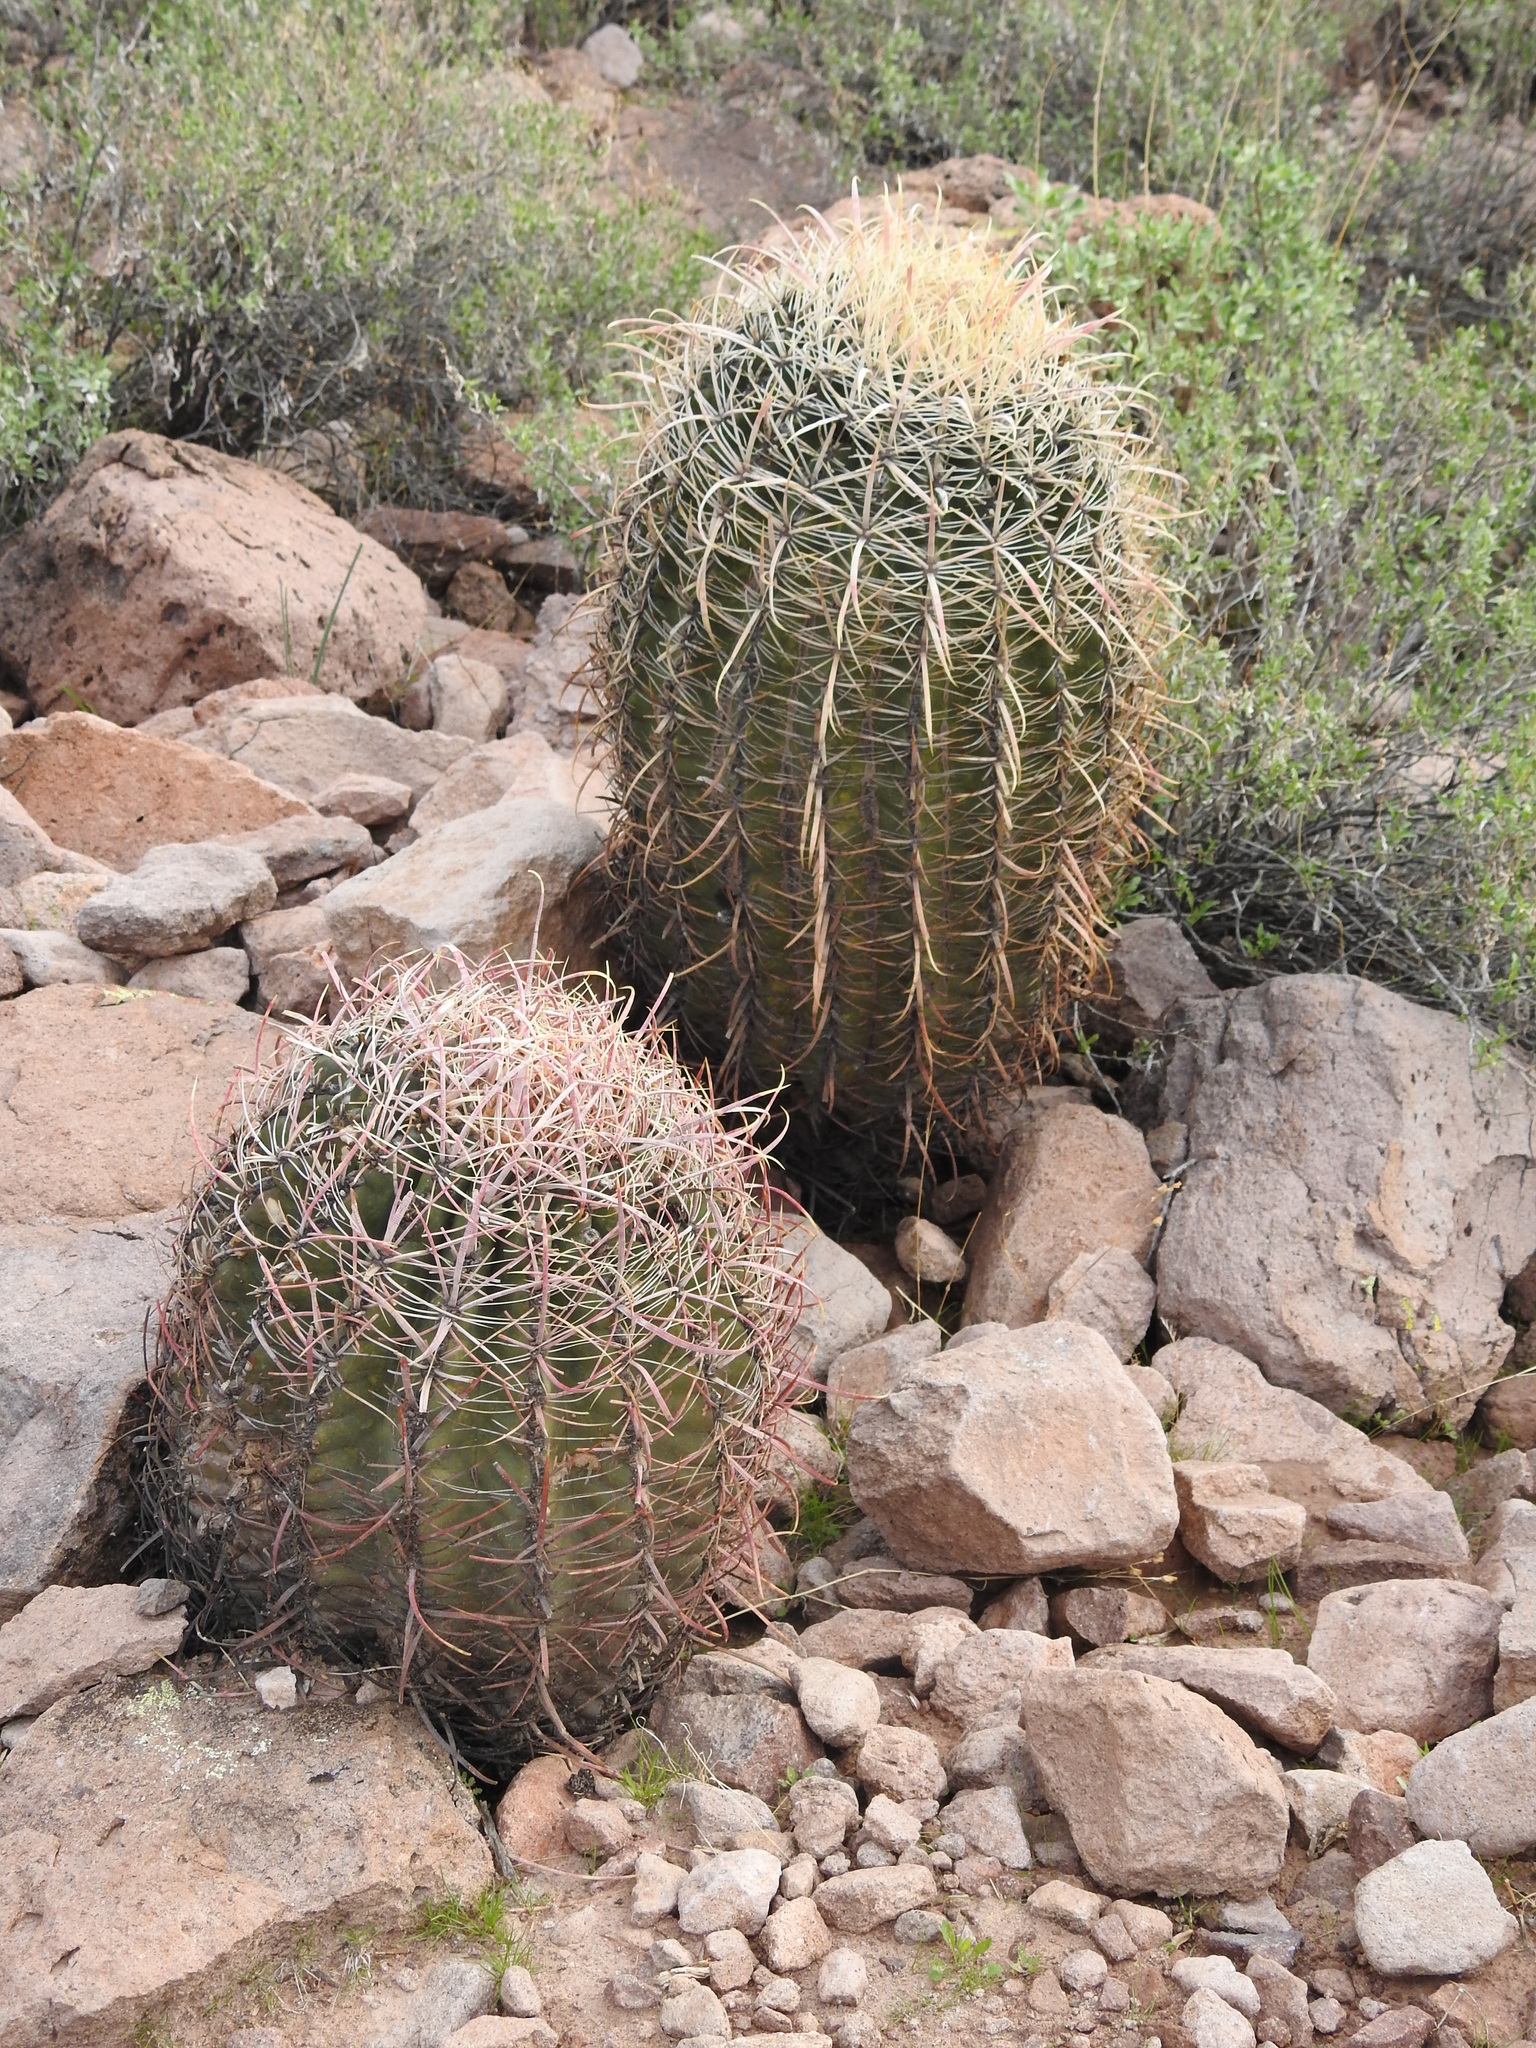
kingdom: Plantae
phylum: Tracheophyta
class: Magnoliopsida
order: Caryophyllales
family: Cactaceae
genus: Ferocactus
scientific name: Ferocactus cylindraceus
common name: California barrel cactus
